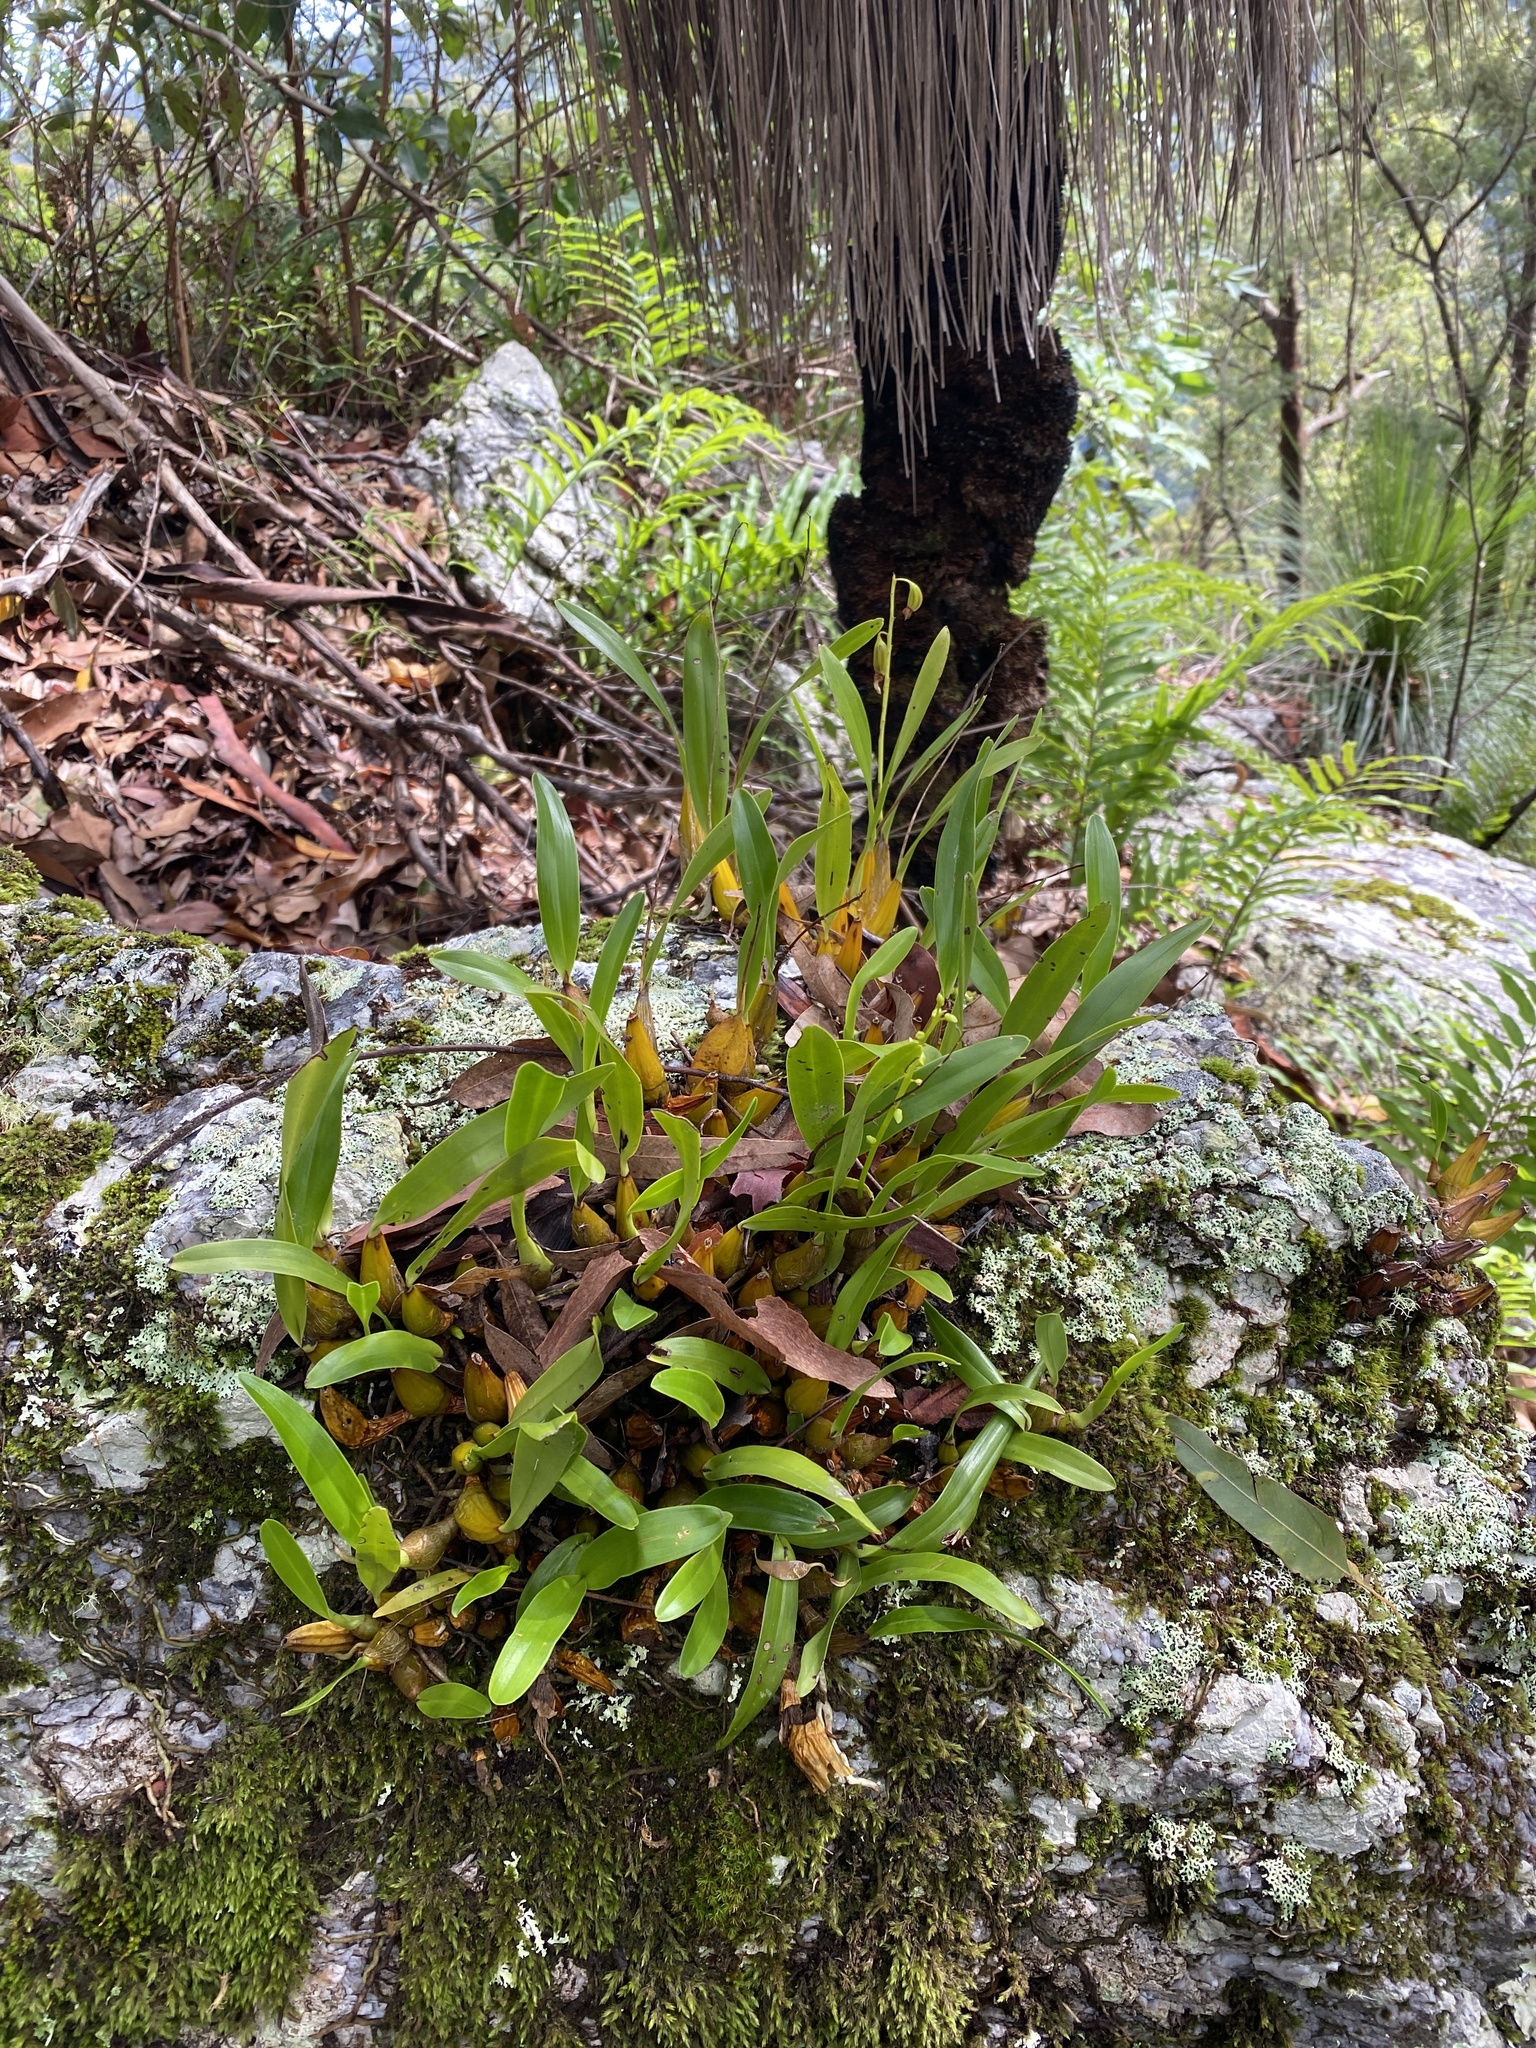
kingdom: Plantae
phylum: Tracheophyta
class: Liliopsida
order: Asparagales
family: Orchidaceae
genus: Dendrobium
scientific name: Dendrobium monophyllum
